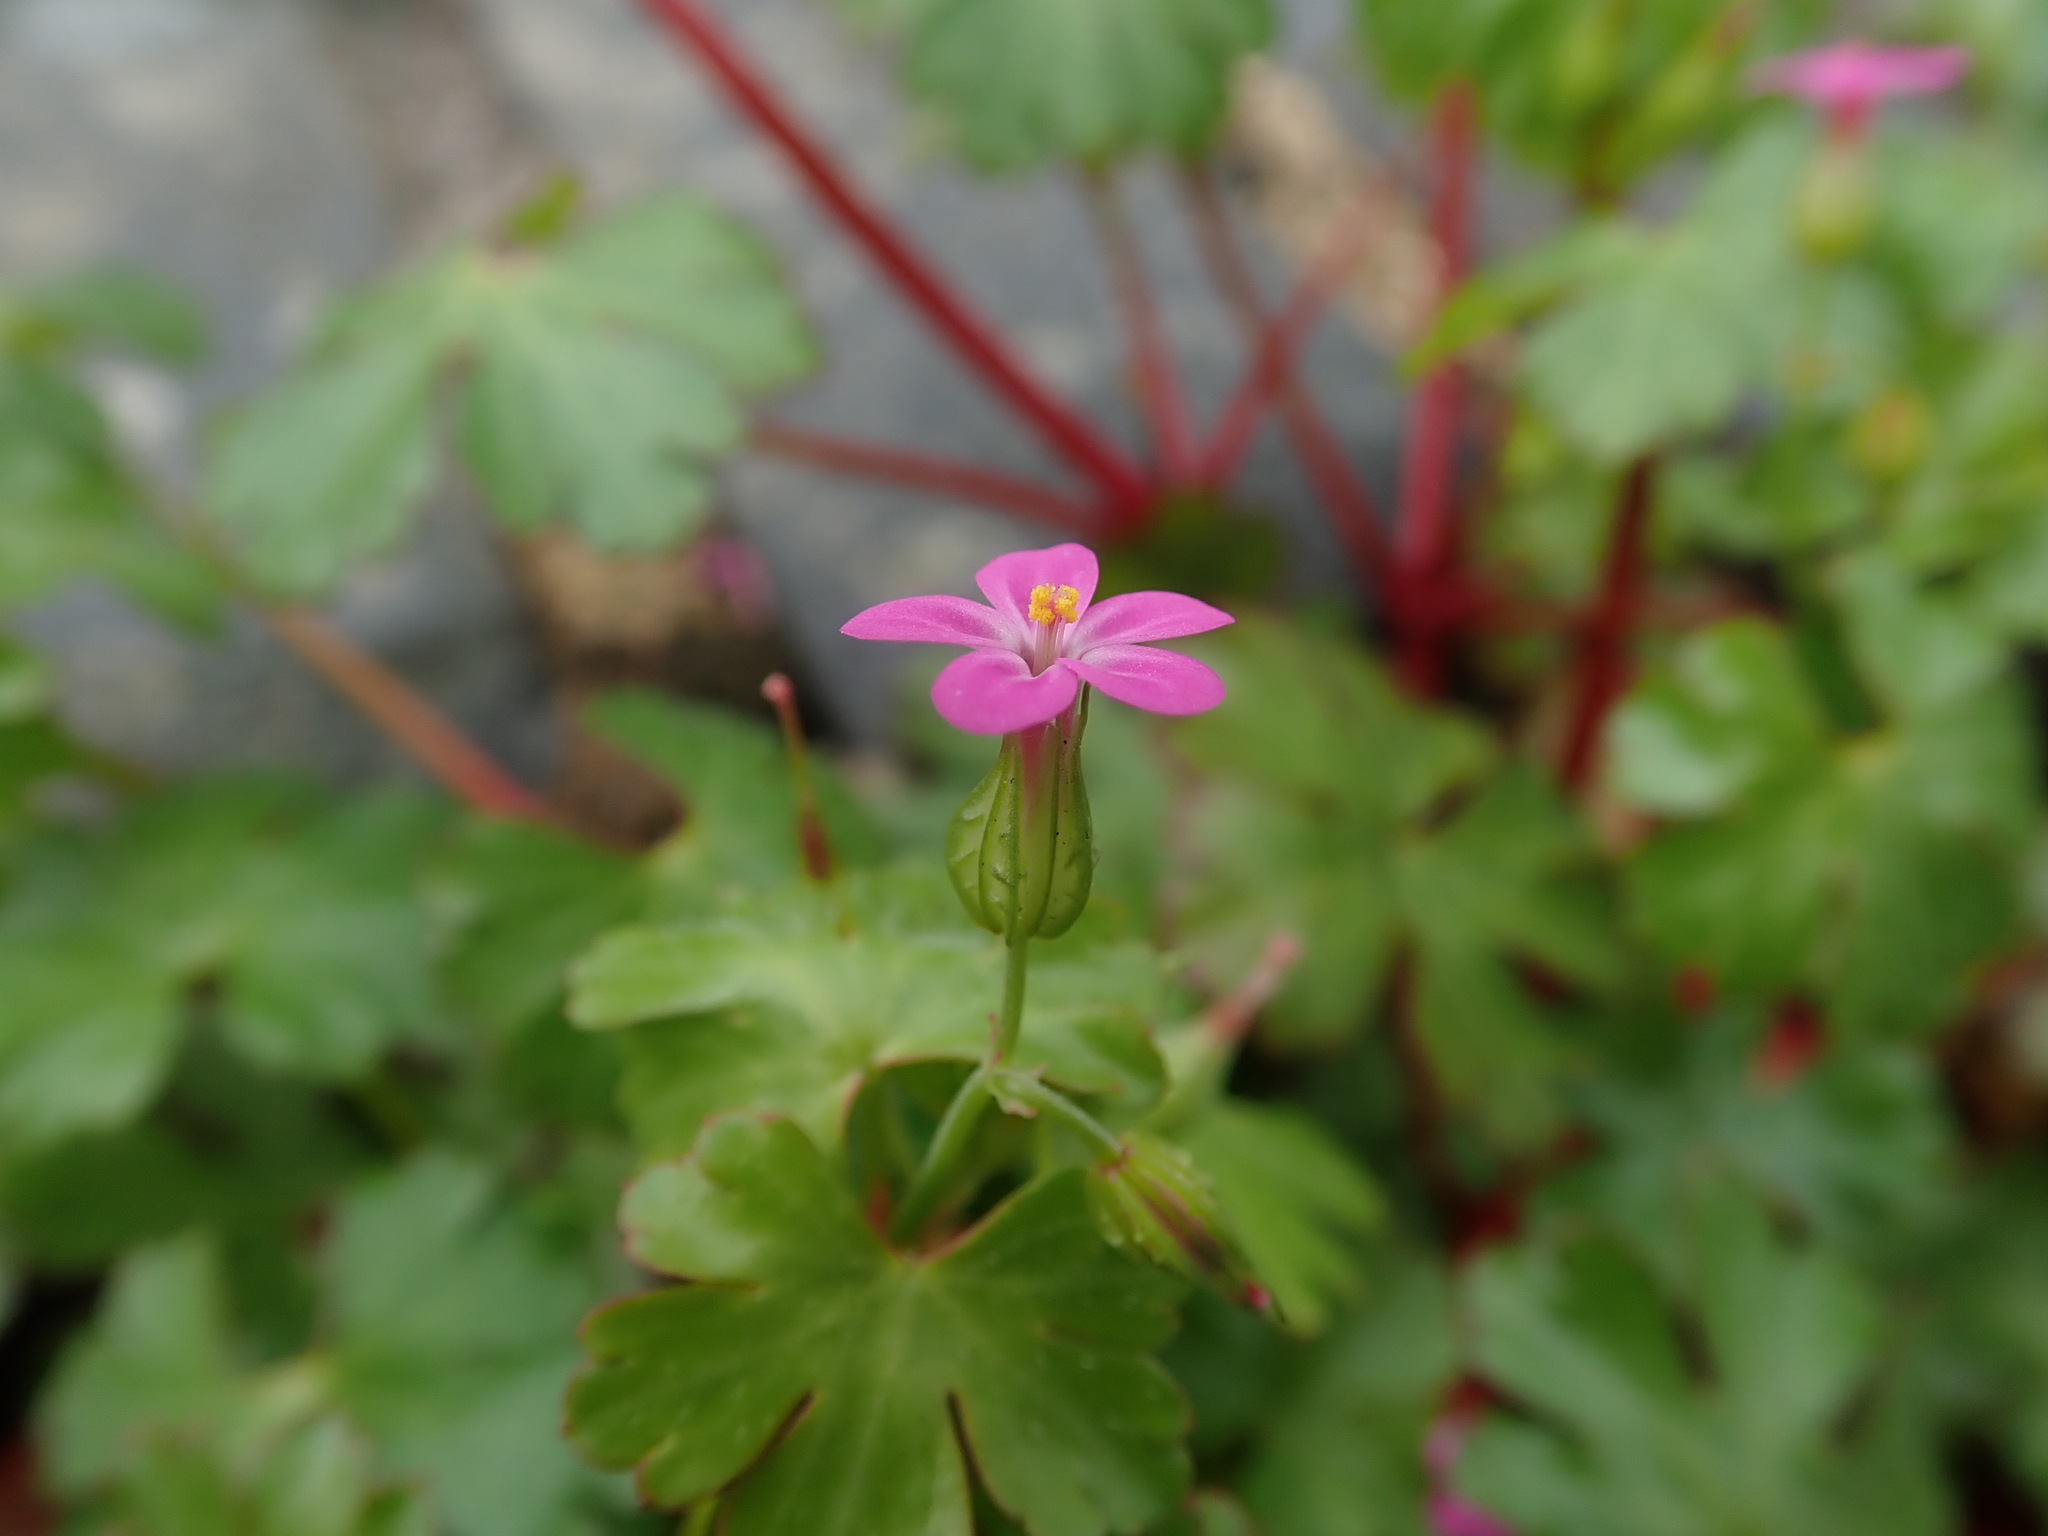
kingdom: Plantae
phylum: Tracheophyta
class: Magnoliopsida
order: Geraniales
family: Geraniaceae
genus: Geranium
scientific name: Geranium lucidum
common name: Shining crane's-bill
